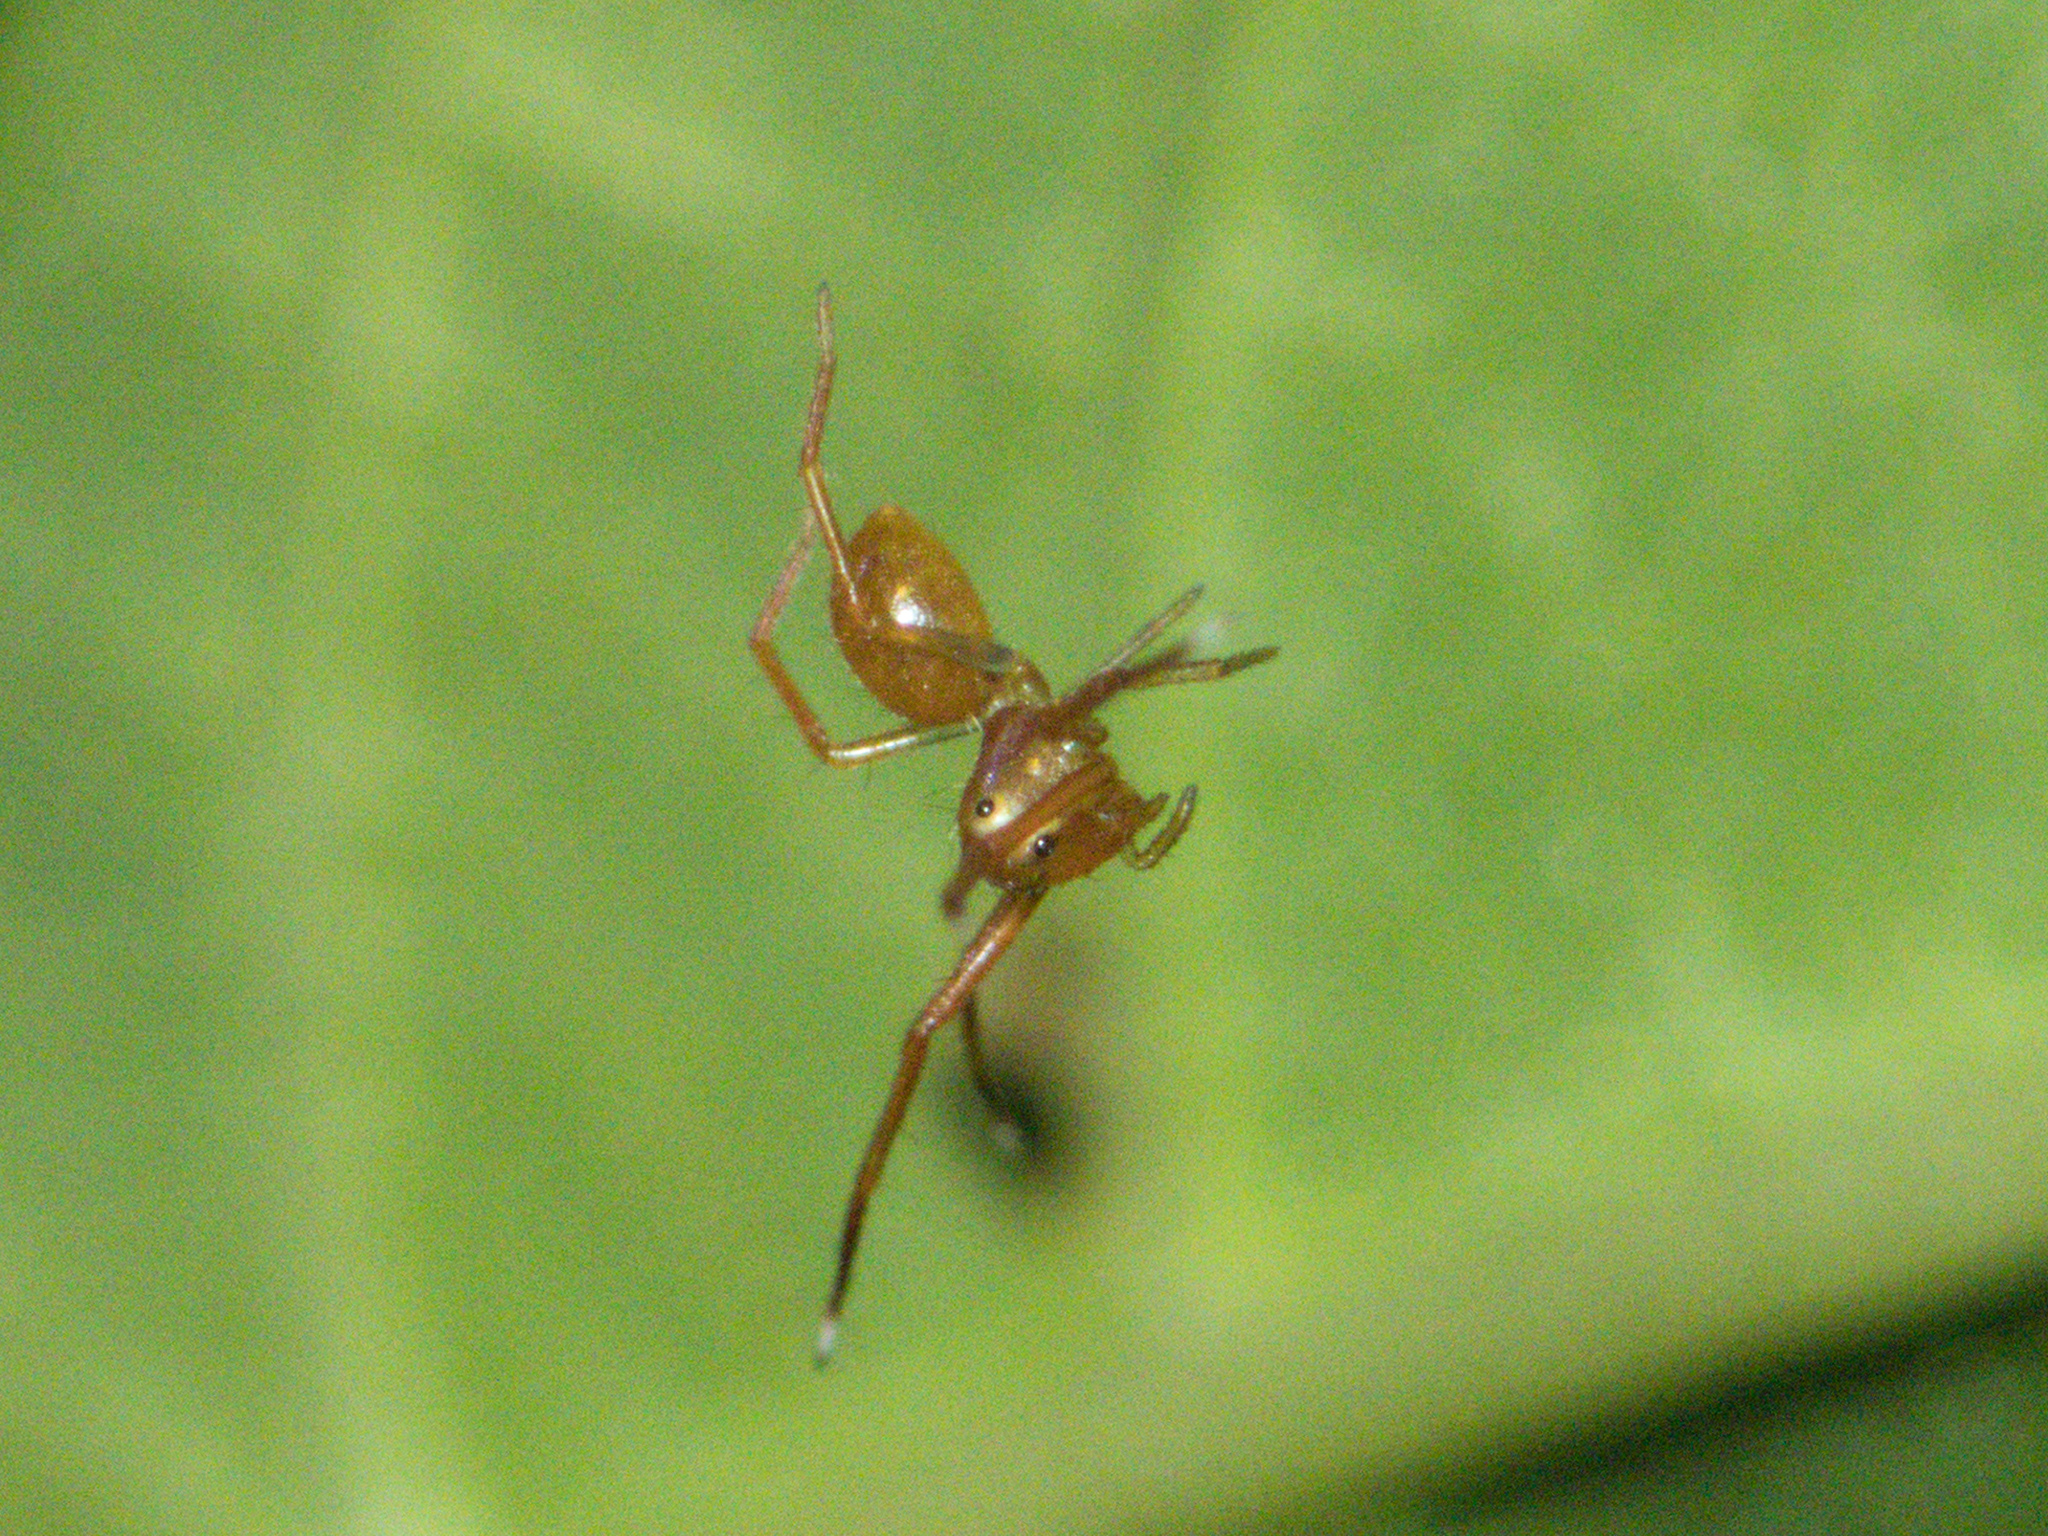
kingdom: Animalia
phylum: Arthropoda
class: Arachnida
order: Araneae
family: Thomisidae
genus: Amyciaea
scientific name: Amyciaea forticeps
